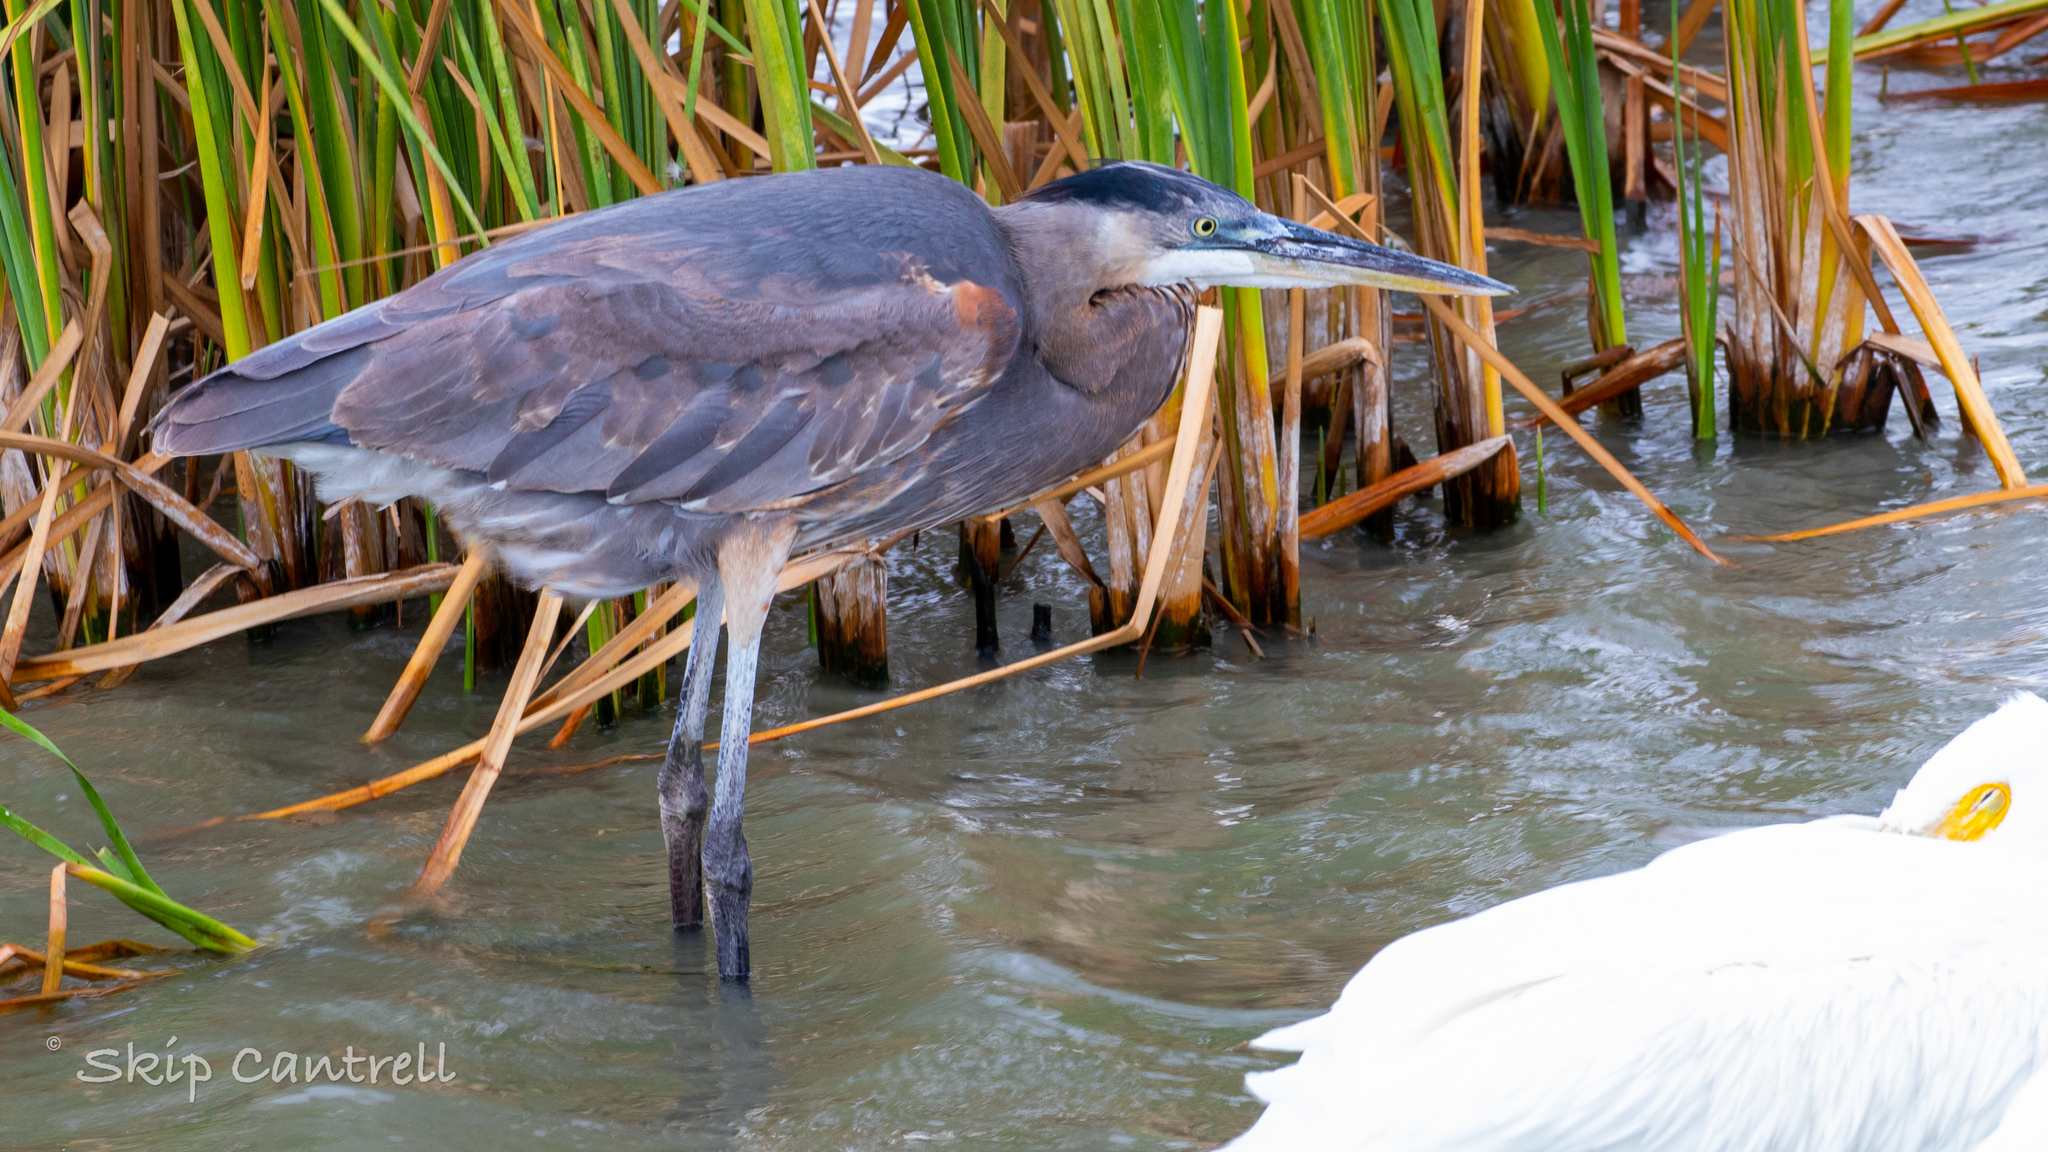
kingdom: Animalia
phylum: Chordata
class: Aves
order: Pelecaniformes
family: Ardeidae
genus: Ardea
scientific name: Ardea herodias
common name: Great blue heron
